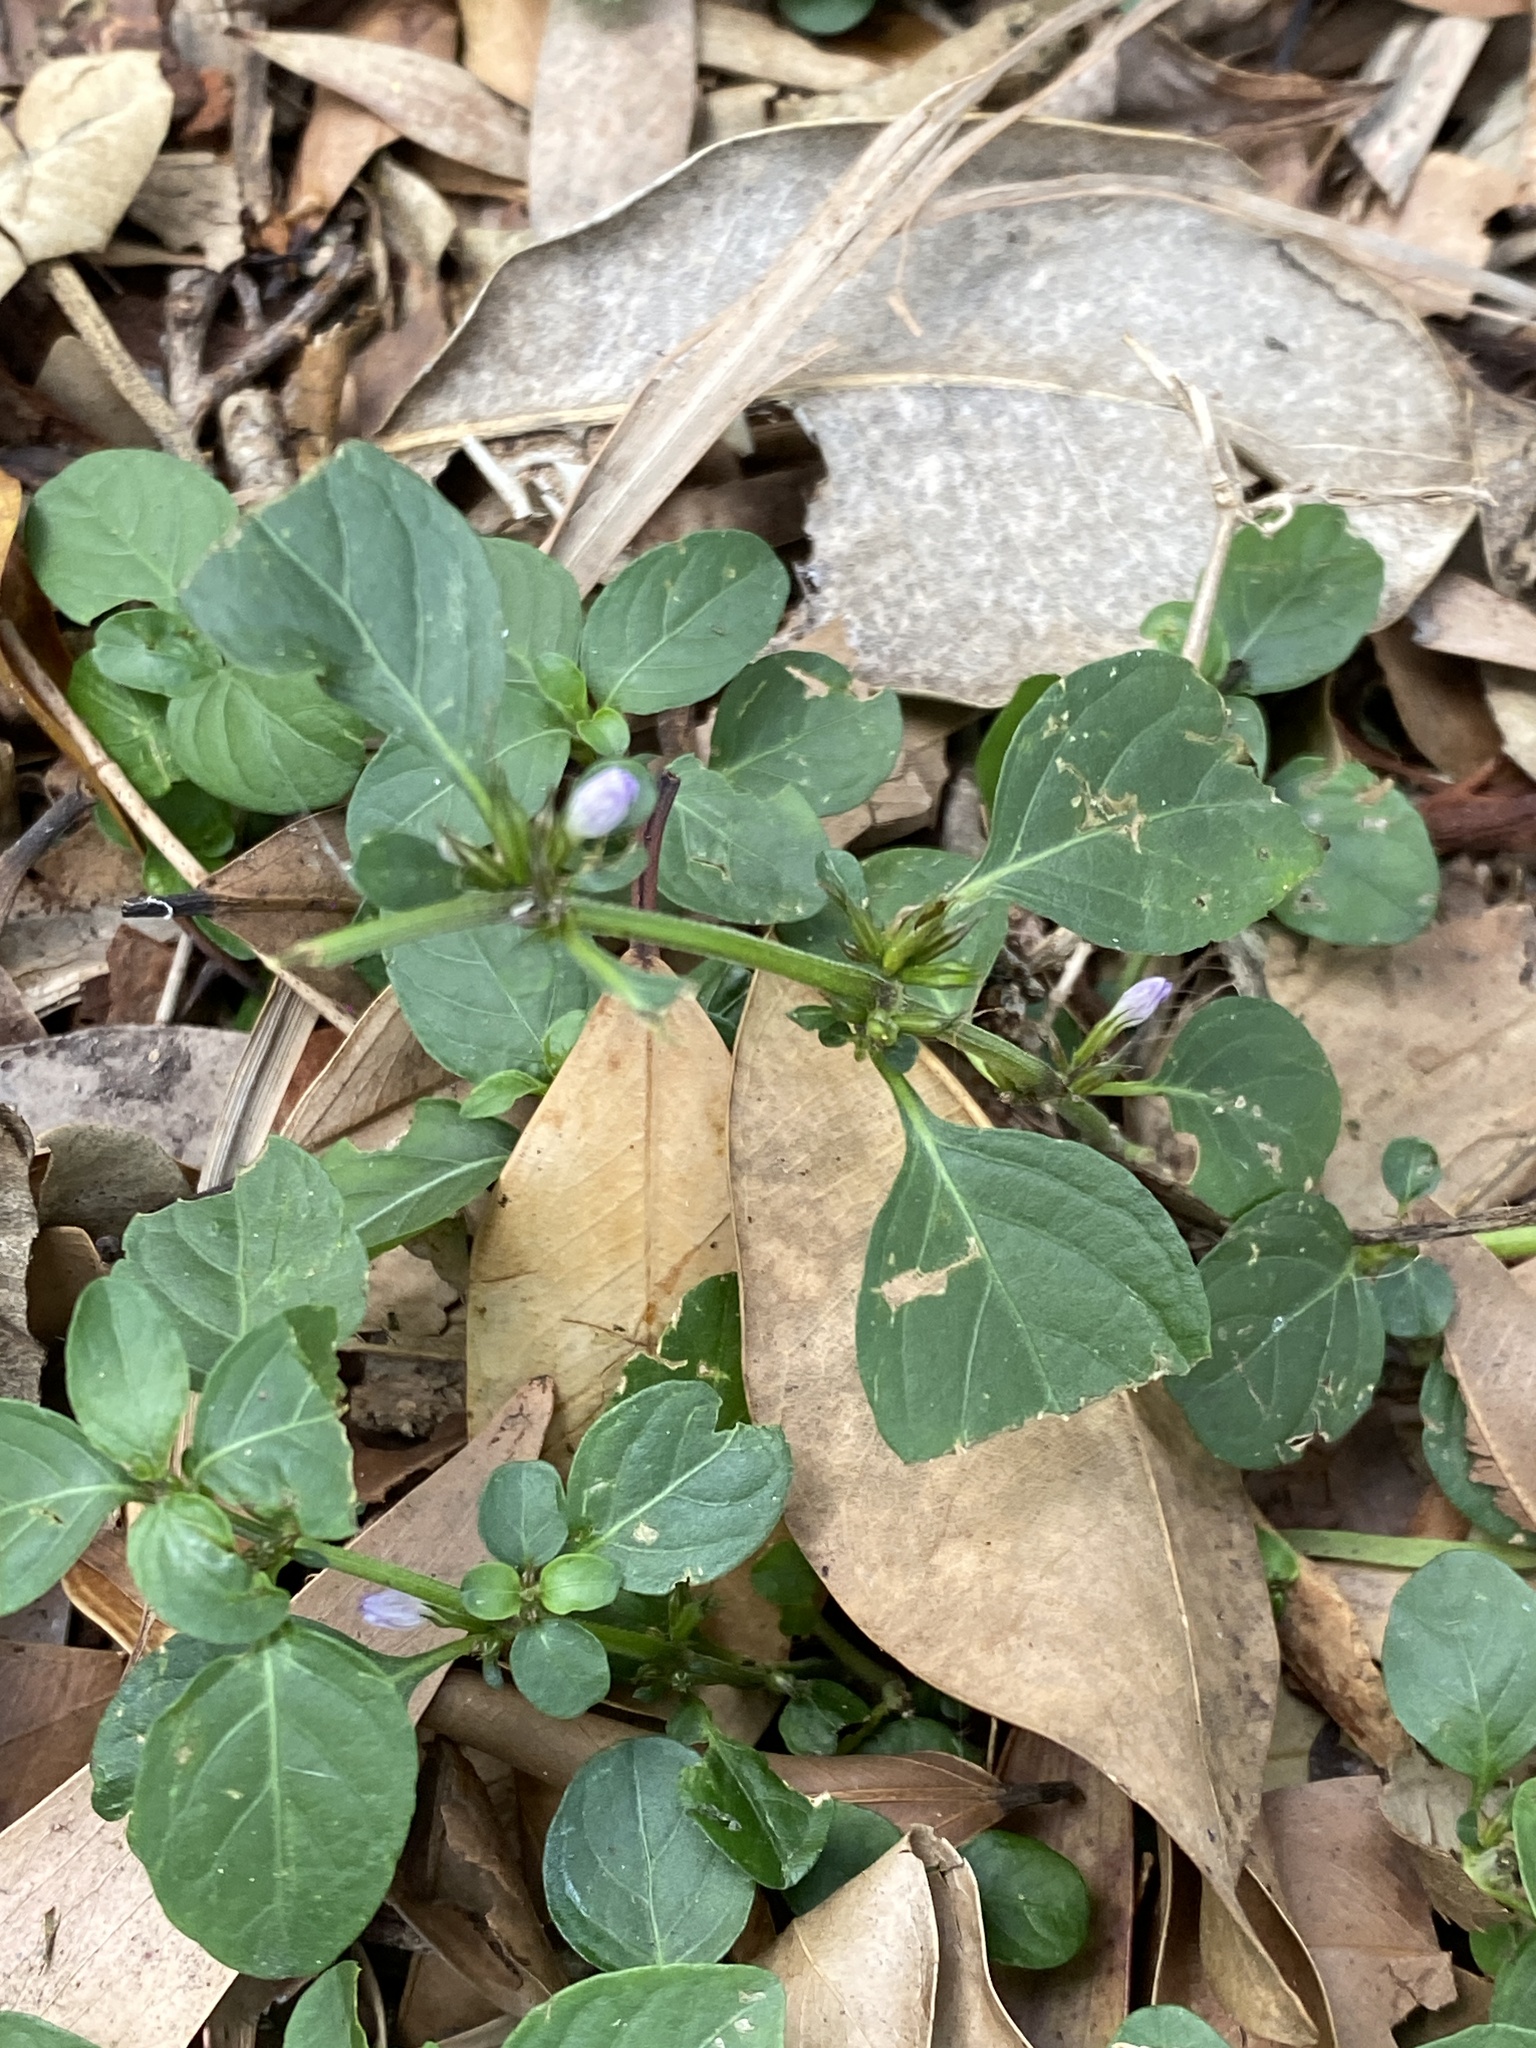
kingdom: Plantae
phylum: Tracheophyta
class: Magnoliopsida
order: Lamiales
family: Acanthaceae
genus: Hygrophila
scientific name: Hygrophila erecta
